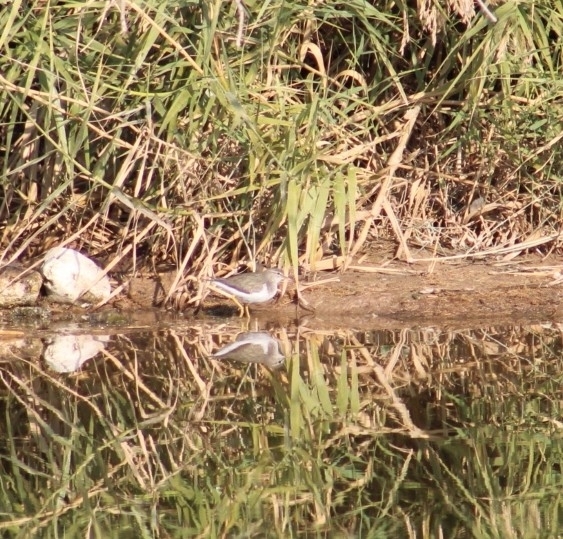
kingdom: Animalia
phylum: Chordata
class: Aves
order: Charadriiformes
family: Scolopacidae
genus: Actitis
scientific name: Actitis macularius
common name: Spotted sandpiper
